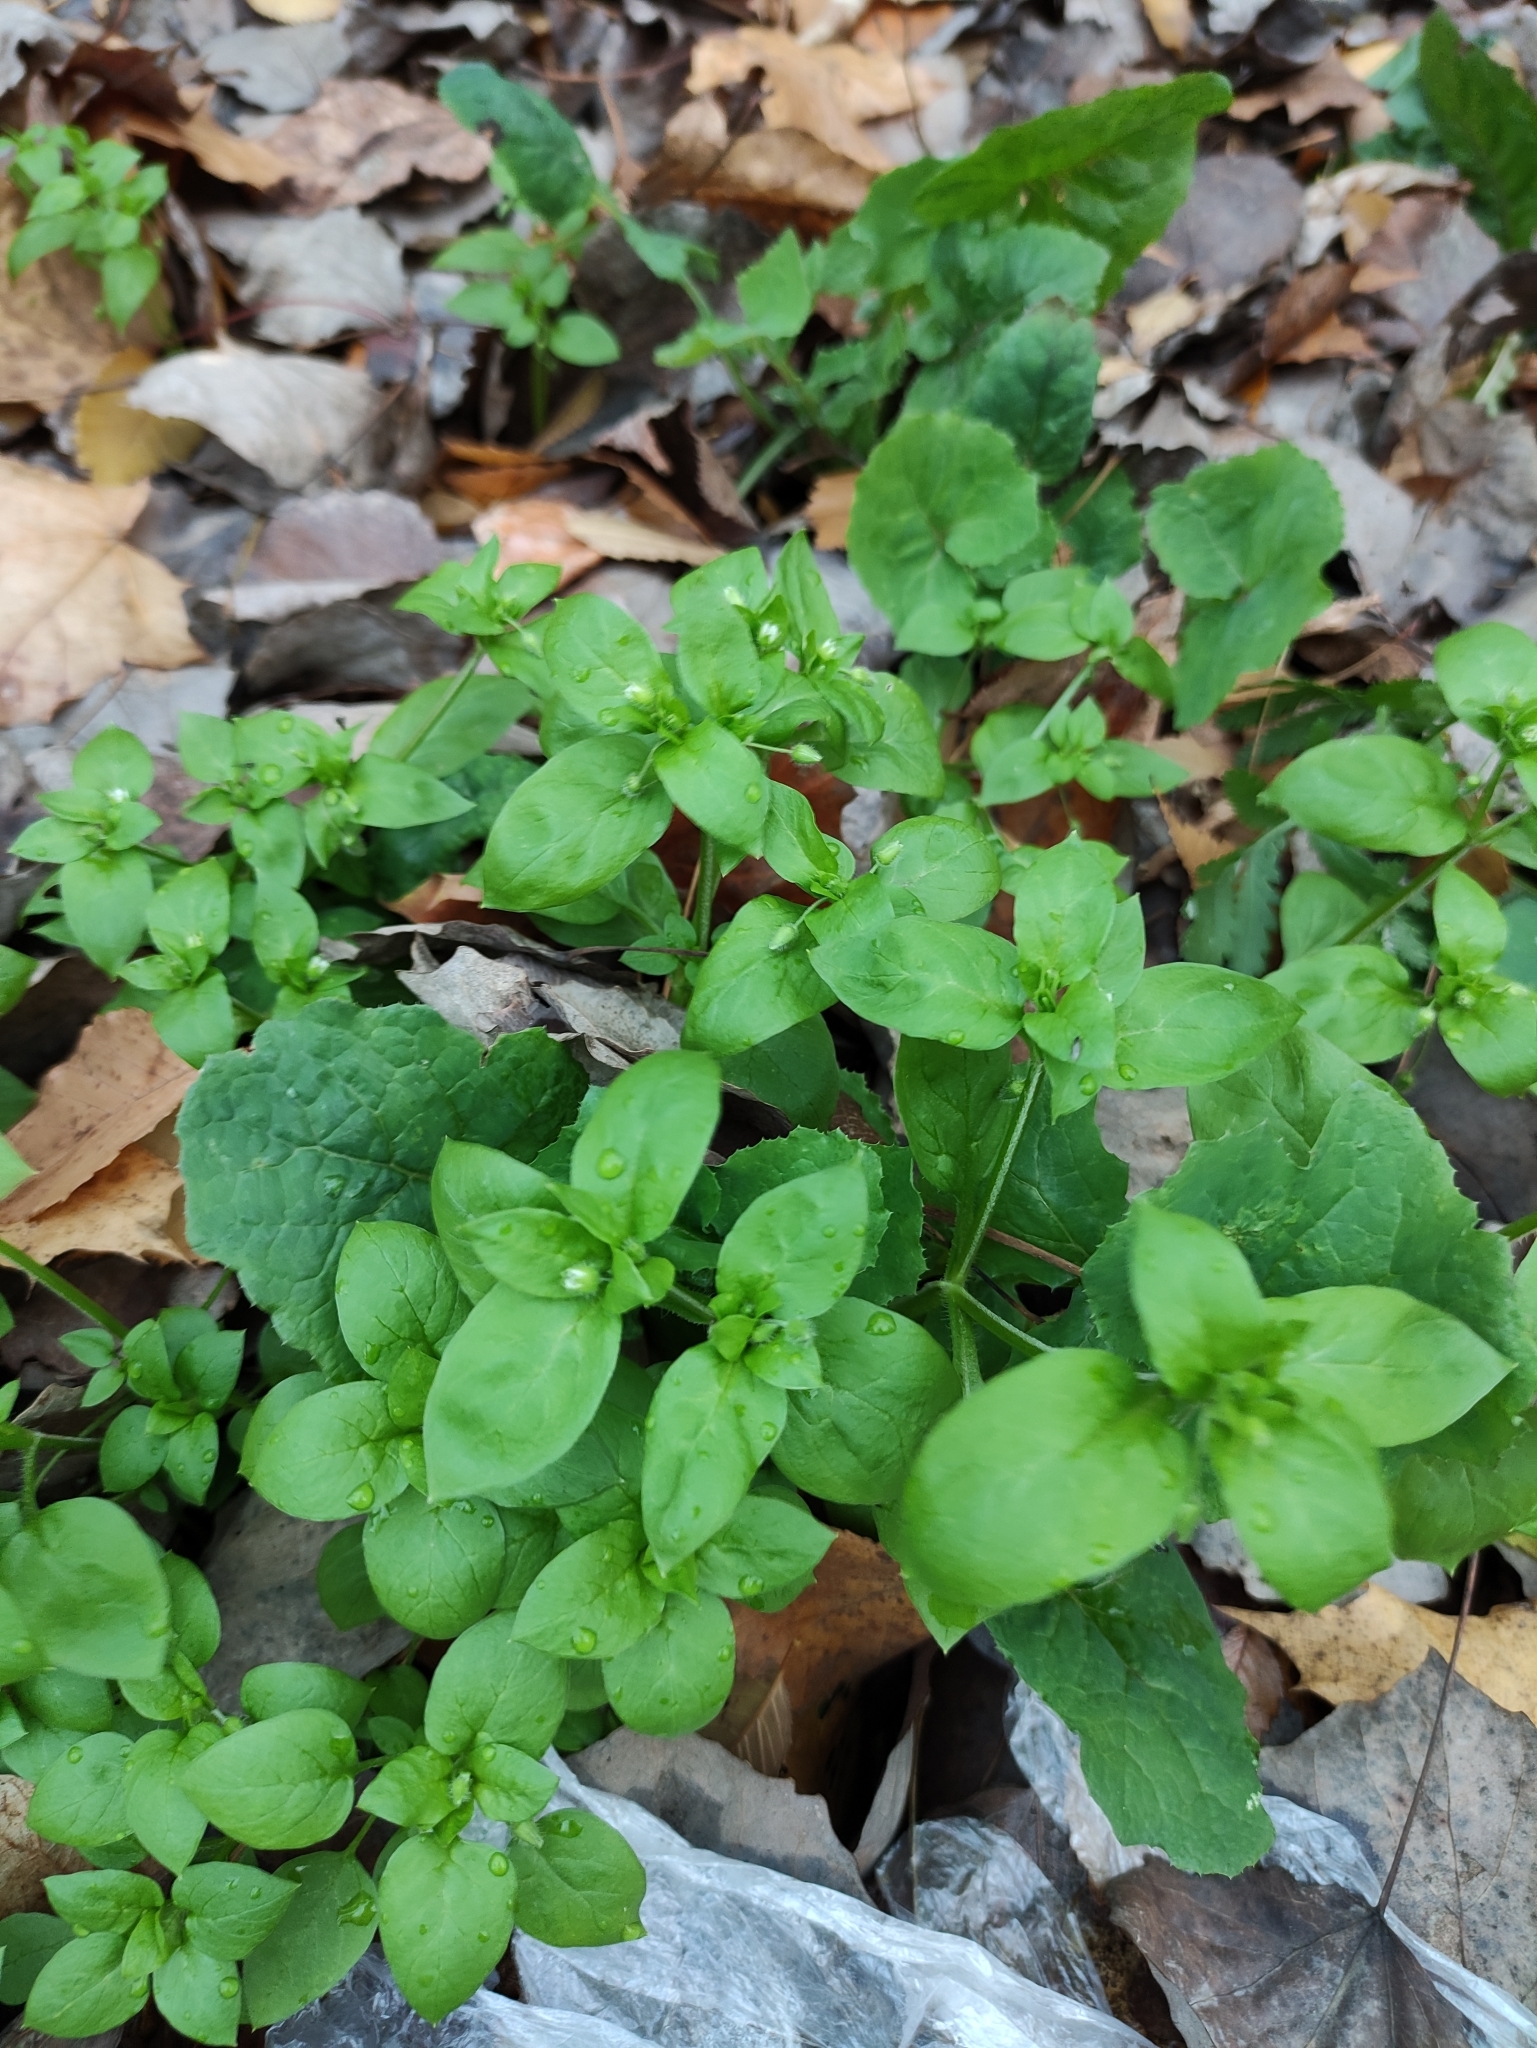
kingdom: Plantae
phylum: Tracheophyta
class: Magnoliopsida
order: Caryophyllales
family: Caryophyllaceae
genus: Stellaria
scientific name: Stellaria media
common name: Common chickweed
